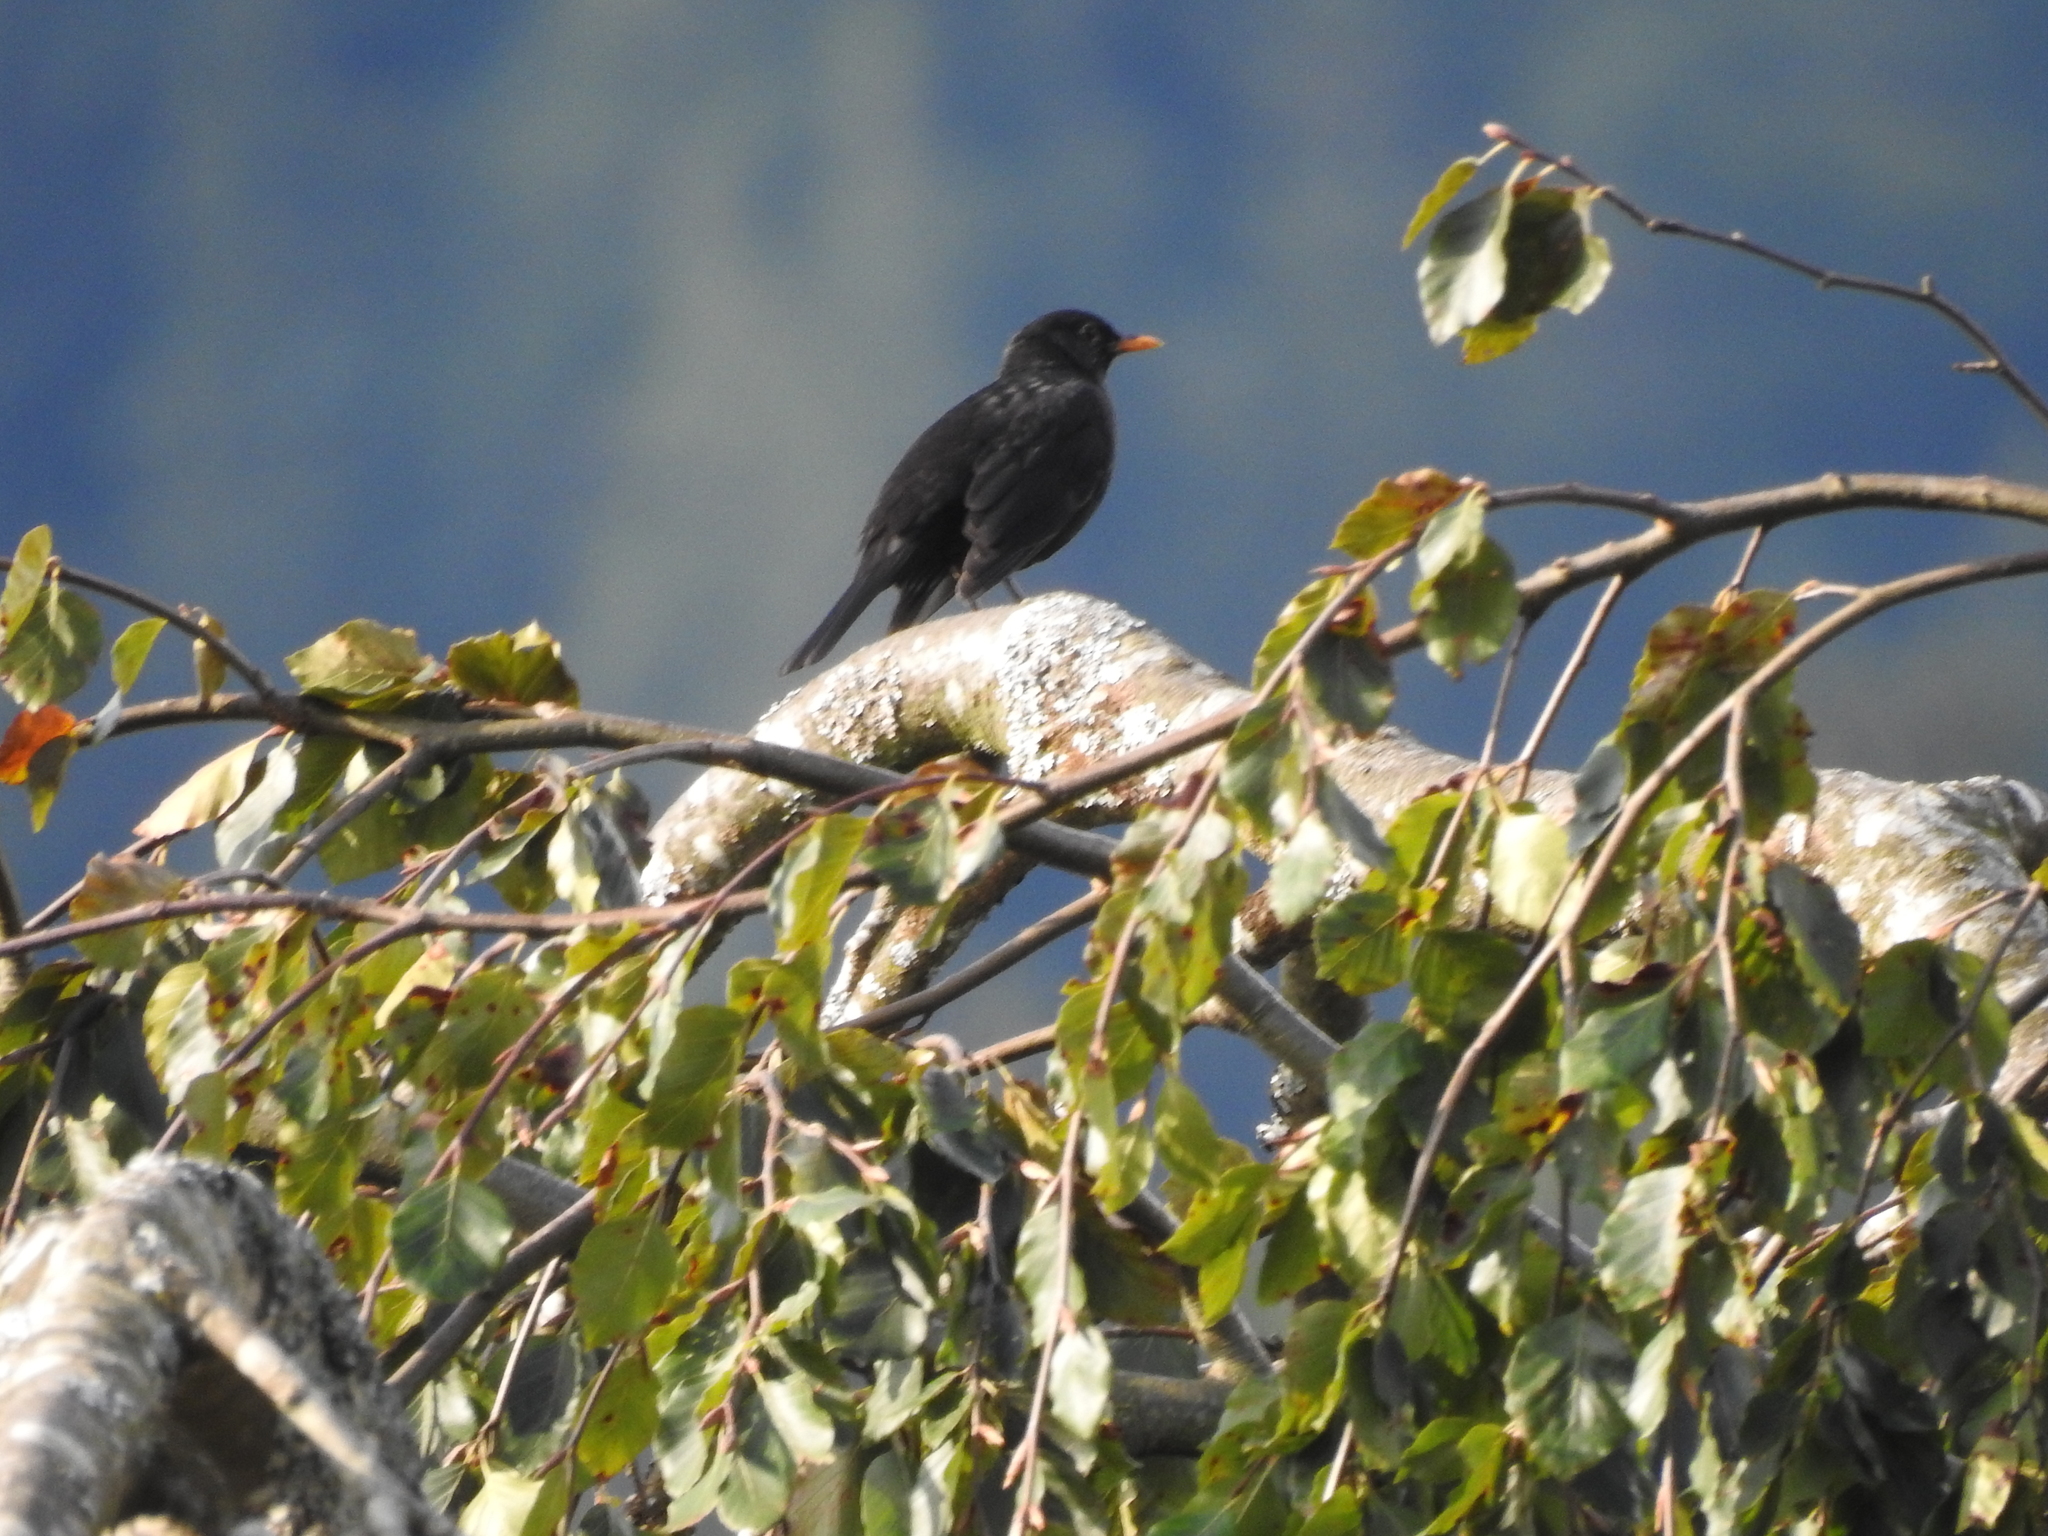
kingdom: Animalia
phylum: Chordata
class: Aves
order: Passeriformes
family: Turdidae
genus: Turdus
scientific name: Turdus merula
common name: Common blackbird
